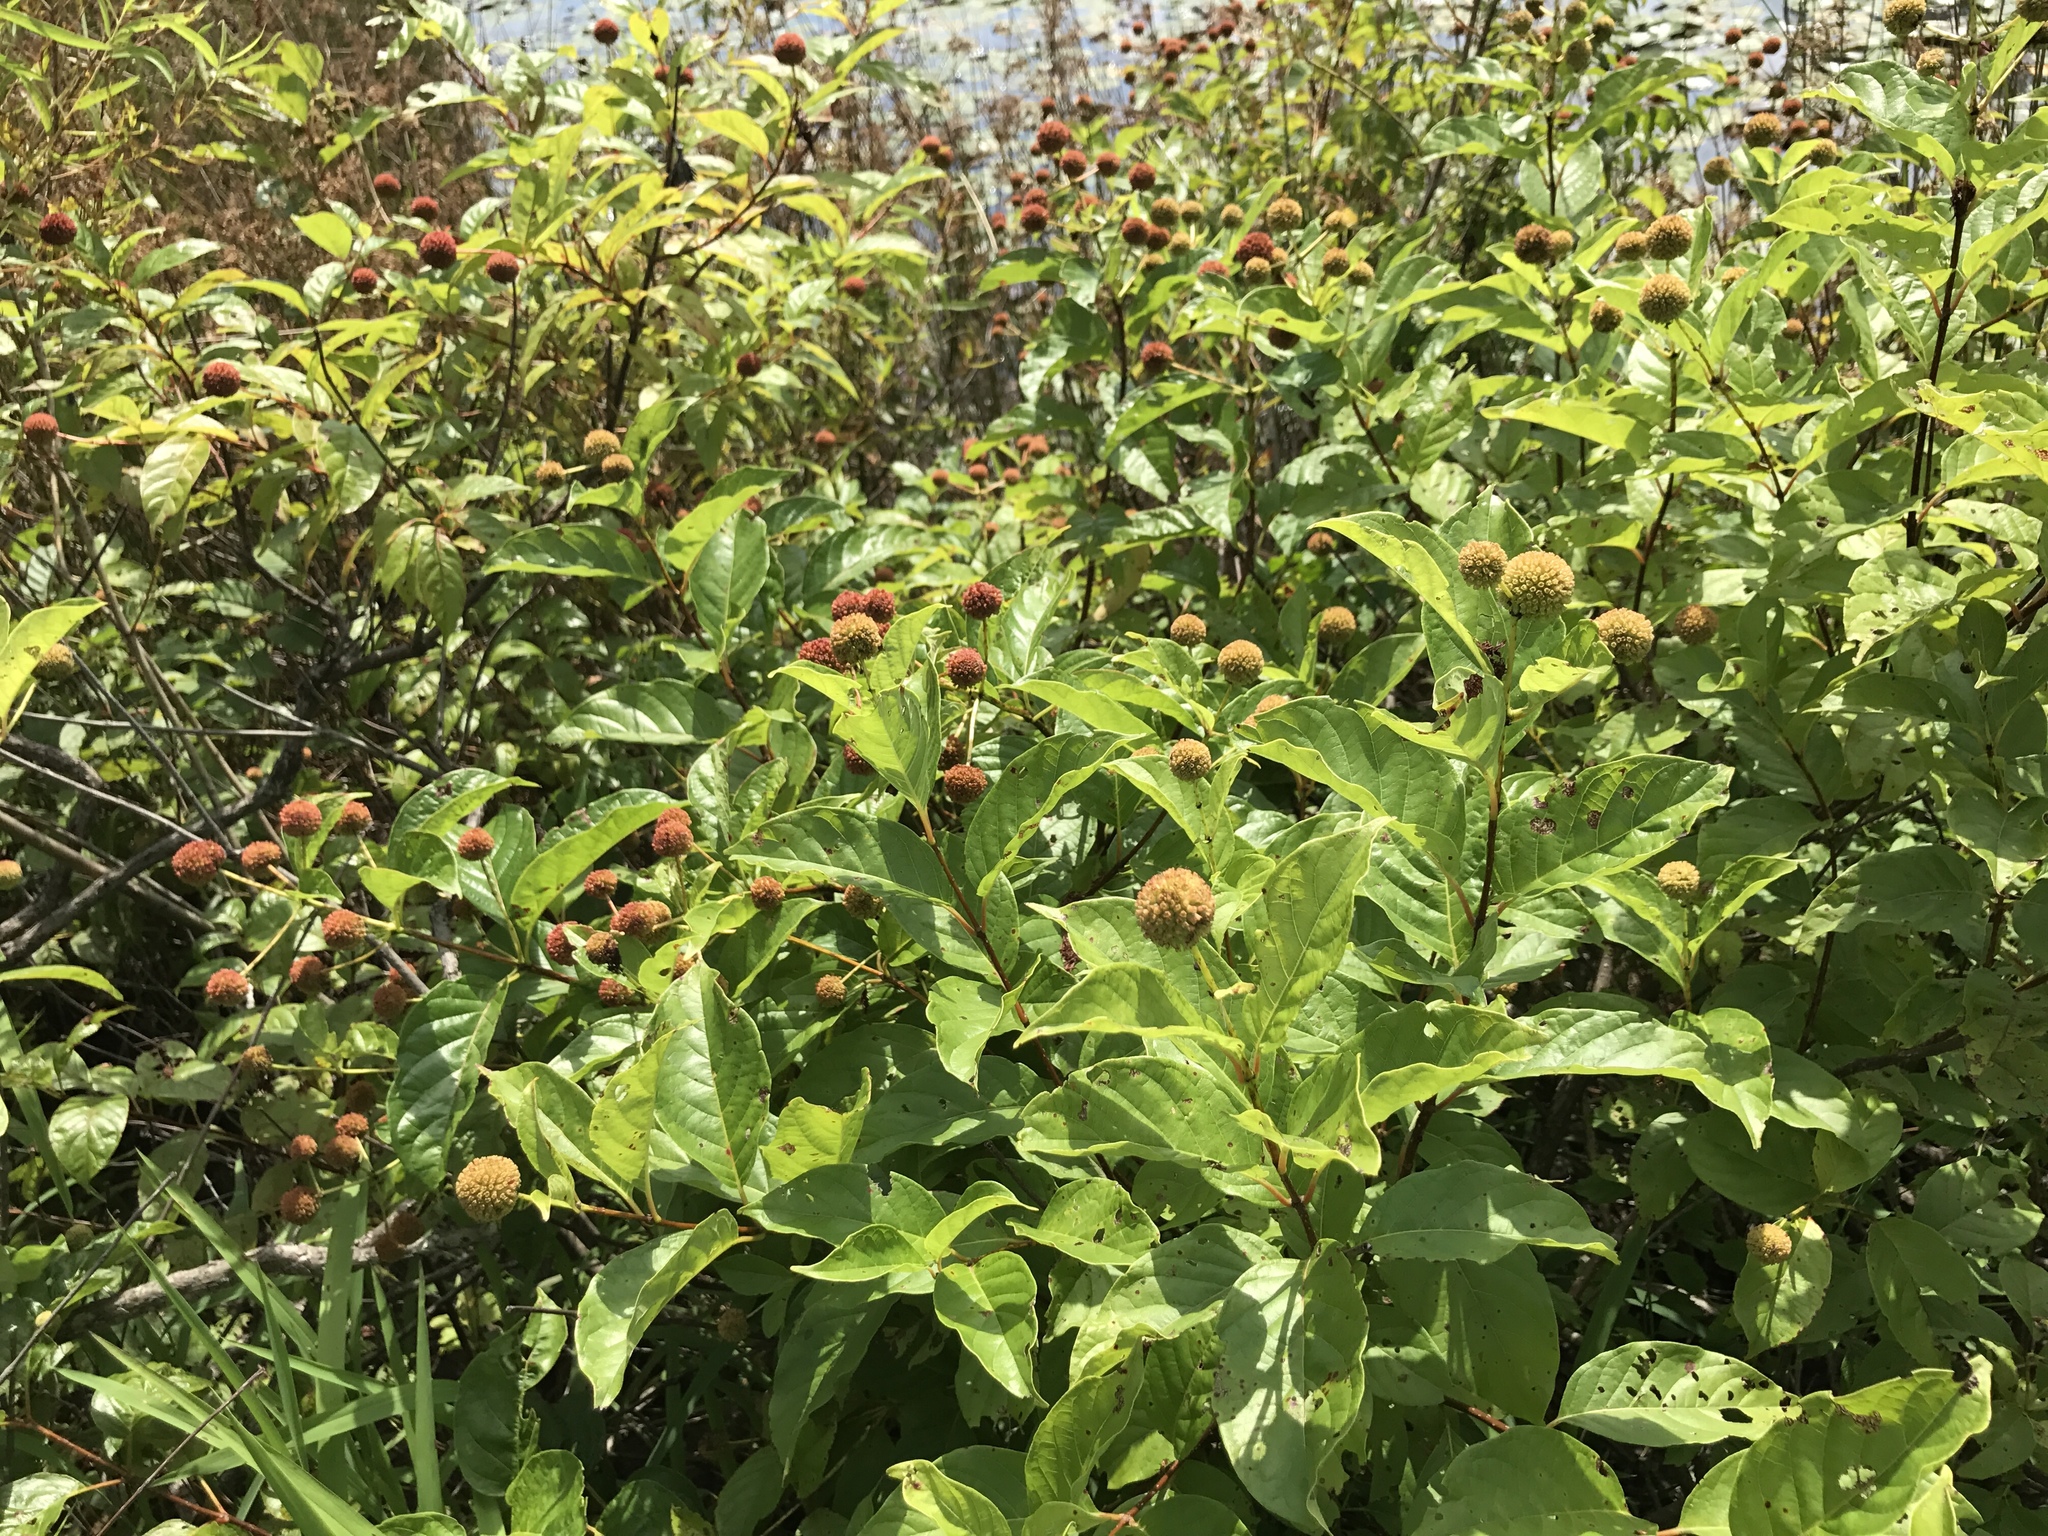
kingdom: Plantae
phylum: Tracheophyta
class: Magnoliopsida
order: Gentianales
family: Rubiaceae
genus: Cephalanthus
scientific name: Cephalanthus occidentalis
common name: Button-willow
